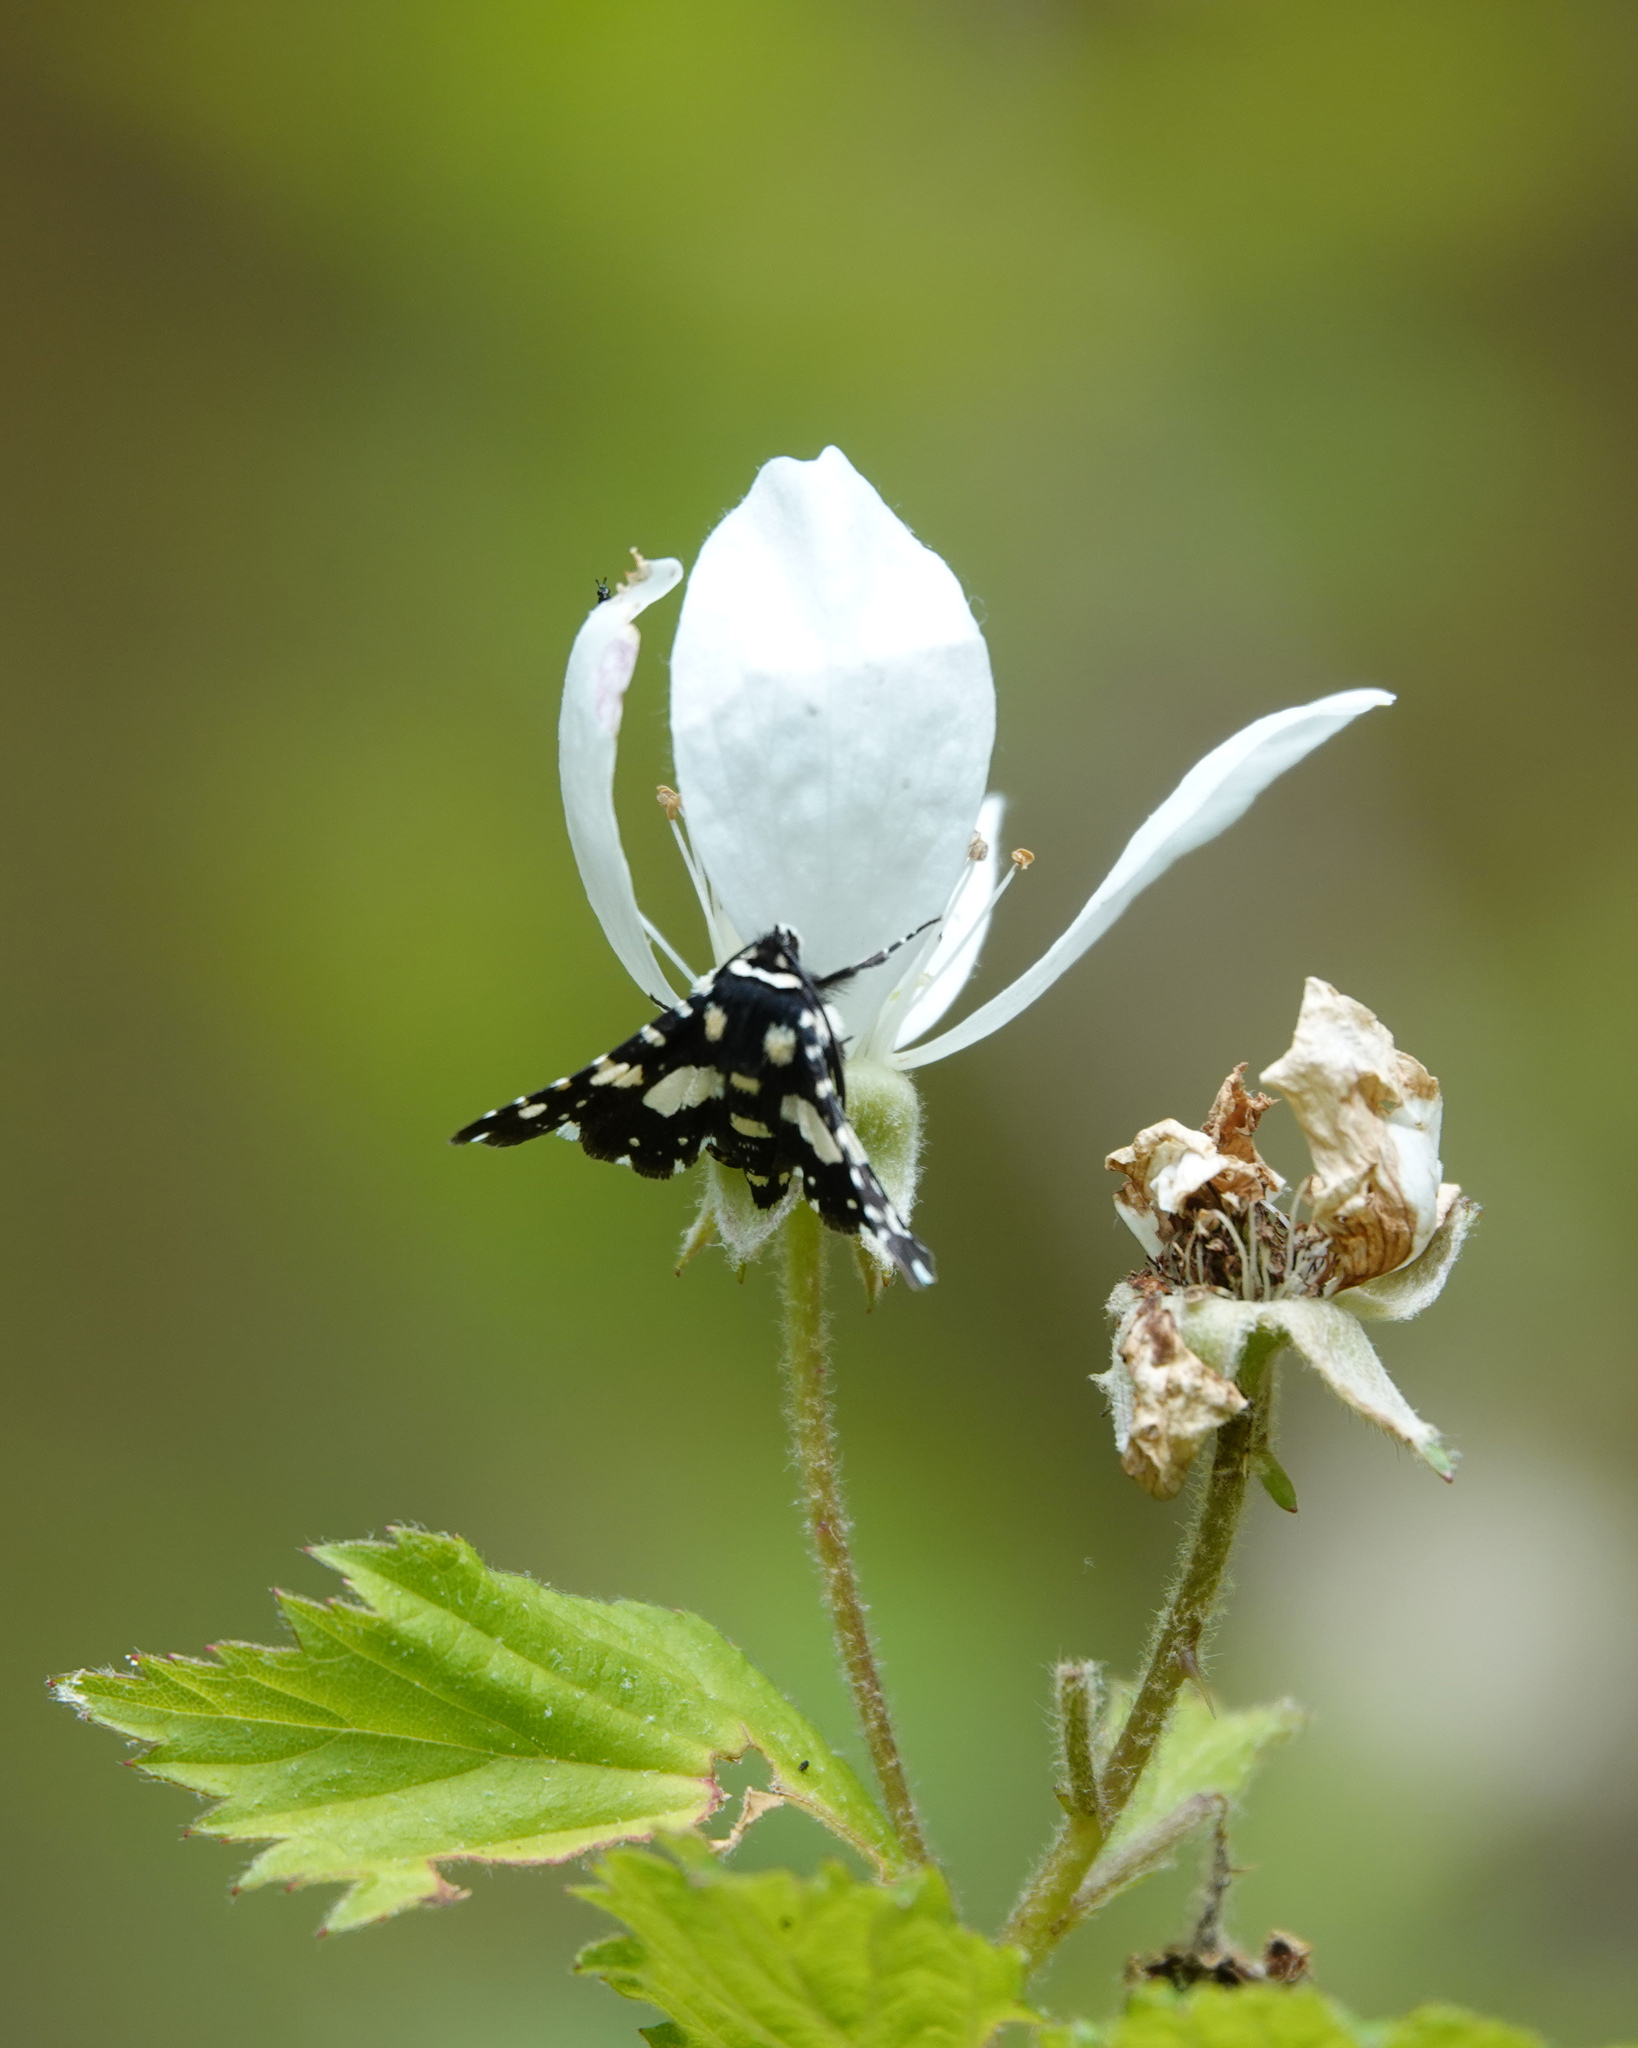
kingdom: Animalia
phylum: Arthropoda
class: Insecta
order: Lepidoptera
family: Thyrididae
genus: Pseudothyris
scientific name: Pseudothyris sepulchralis
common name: Mournful thyris moth
